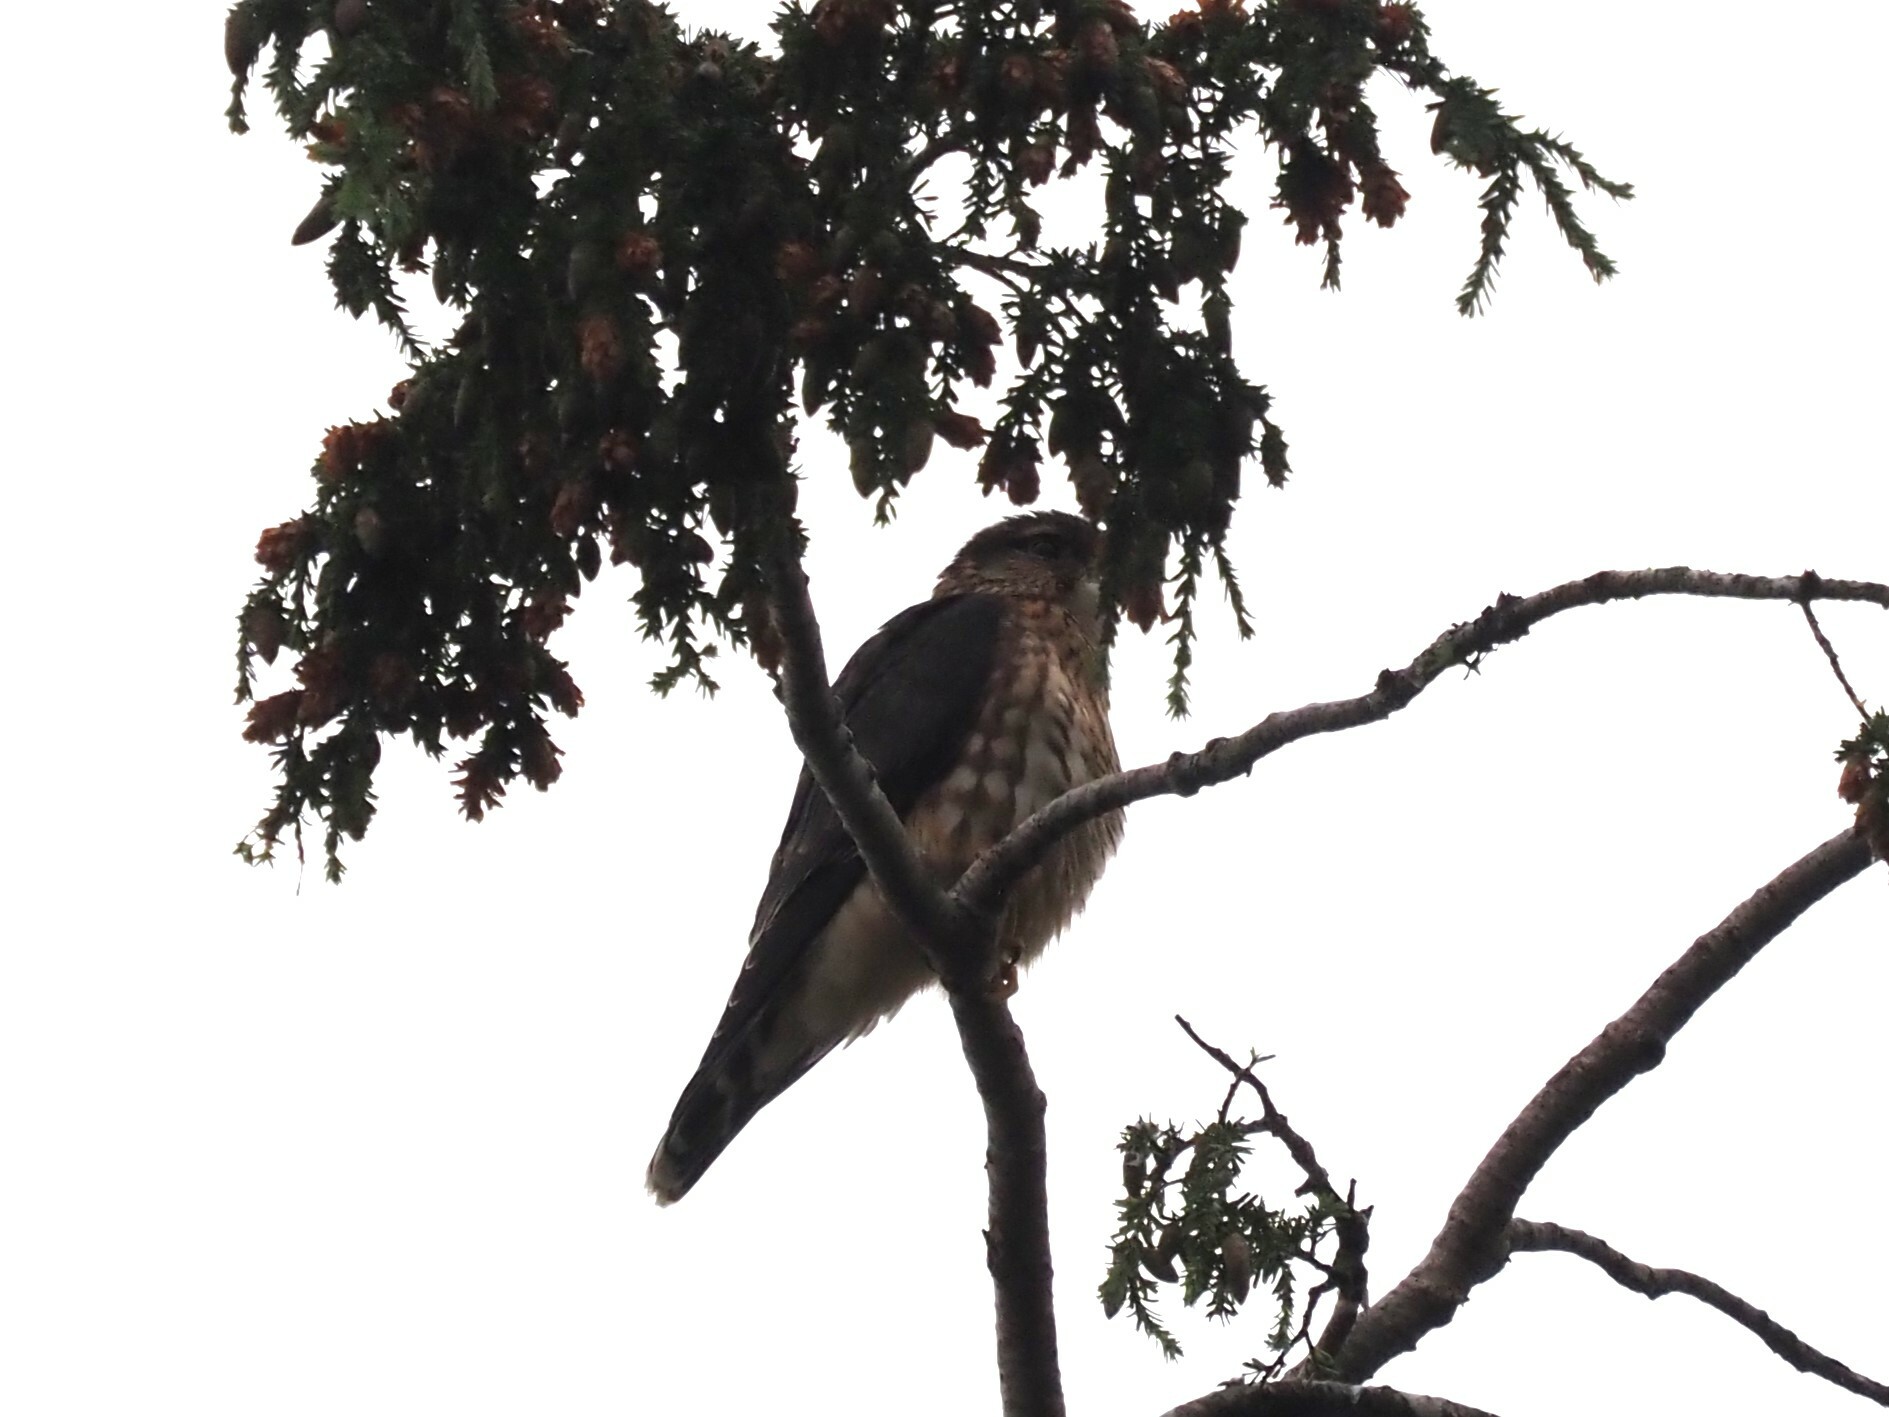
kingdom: Animalia
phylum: Chordata
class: Aves
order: Falconiformes
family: Falconidae
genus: Falco
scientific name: Falco columbarius
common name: Merlin
